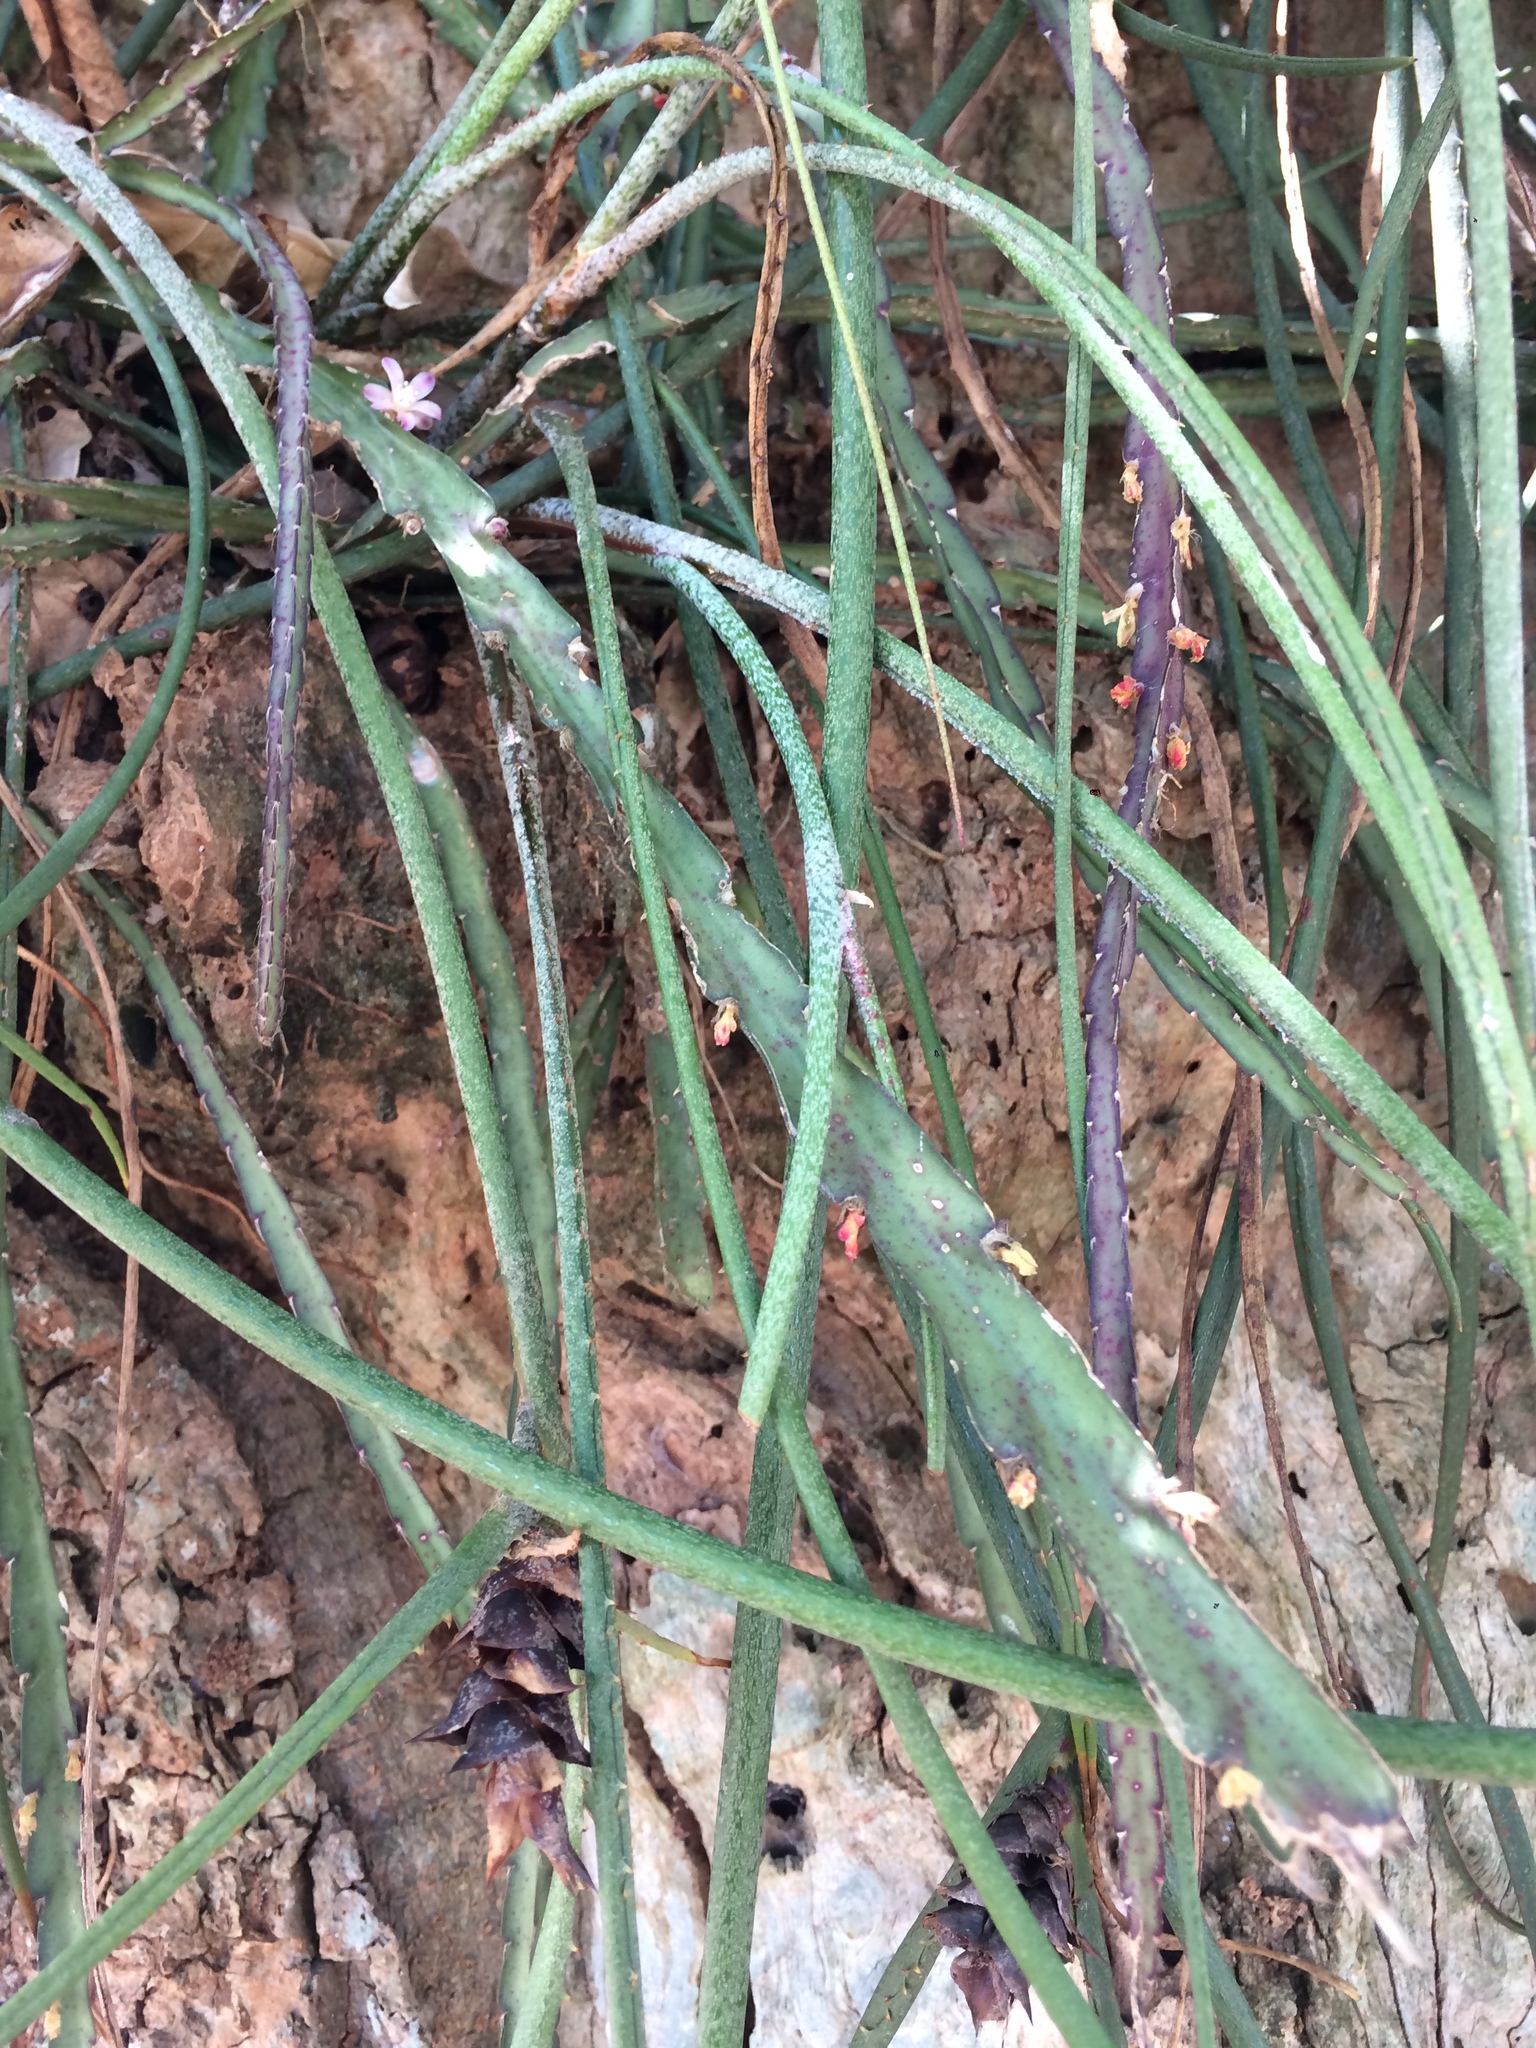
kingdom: Plantae
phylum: Tracheophyta
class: Magnoliopsida
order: Caryophyllales
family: Cactaceae
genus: Lepismium
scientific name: Lepismium cruciforme
